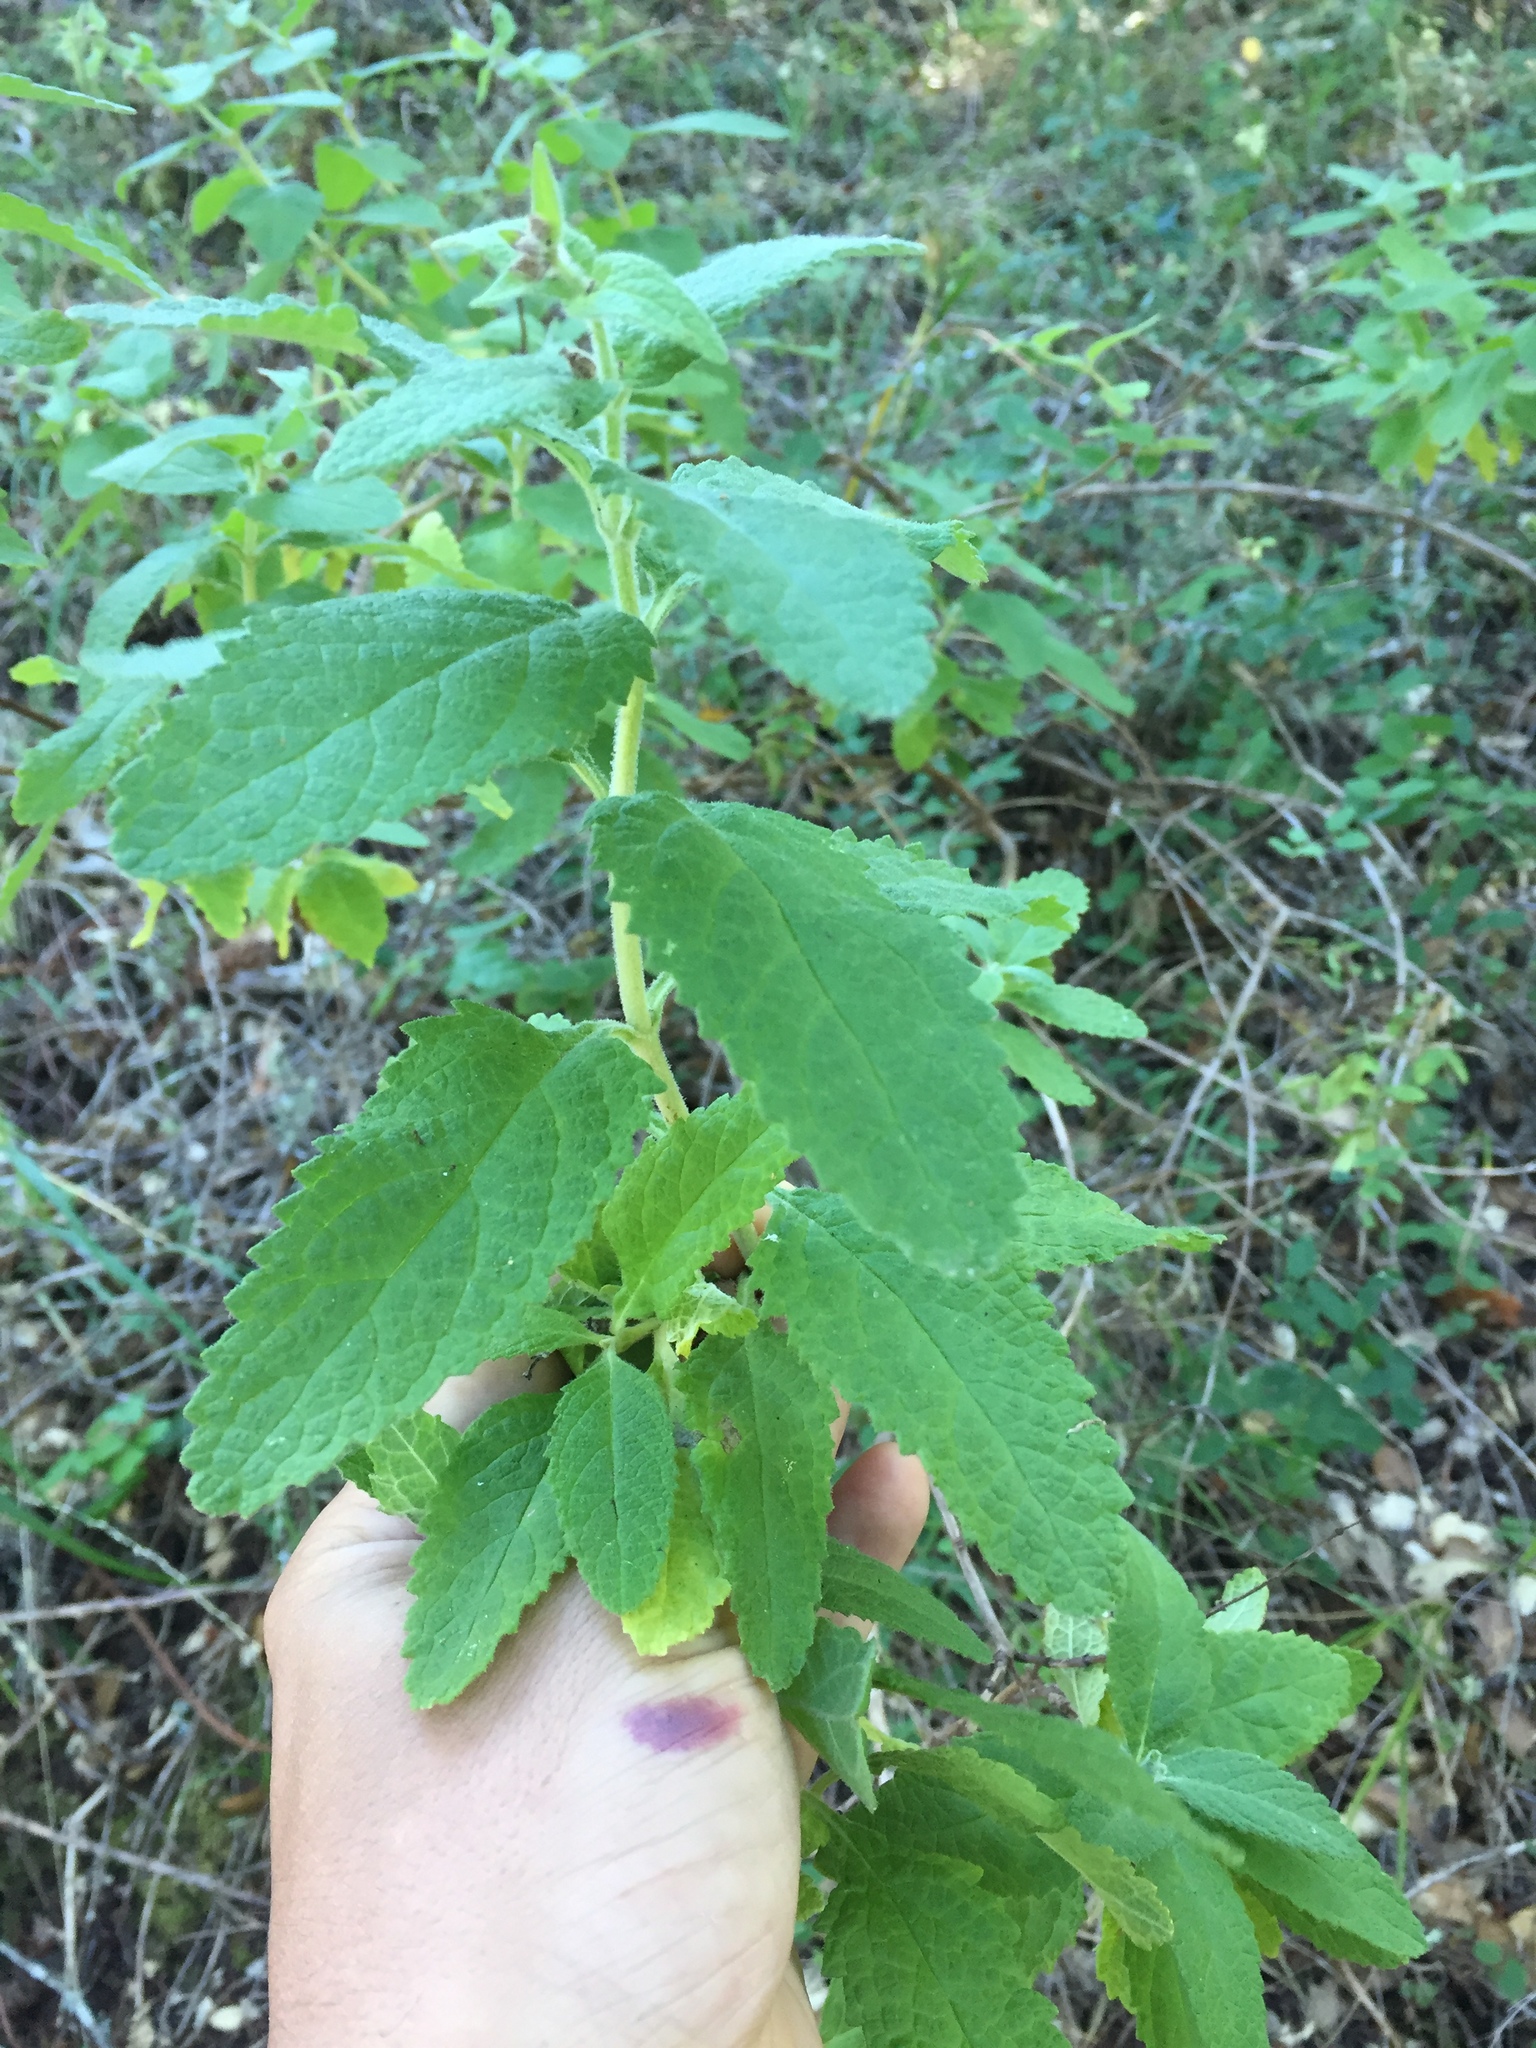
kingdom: Plantae
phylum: Tracheophyta
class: Magnoliopsida
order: Lamiales
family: Lamiaceae
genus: Lepechinia
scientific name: Lepechinia calycina
